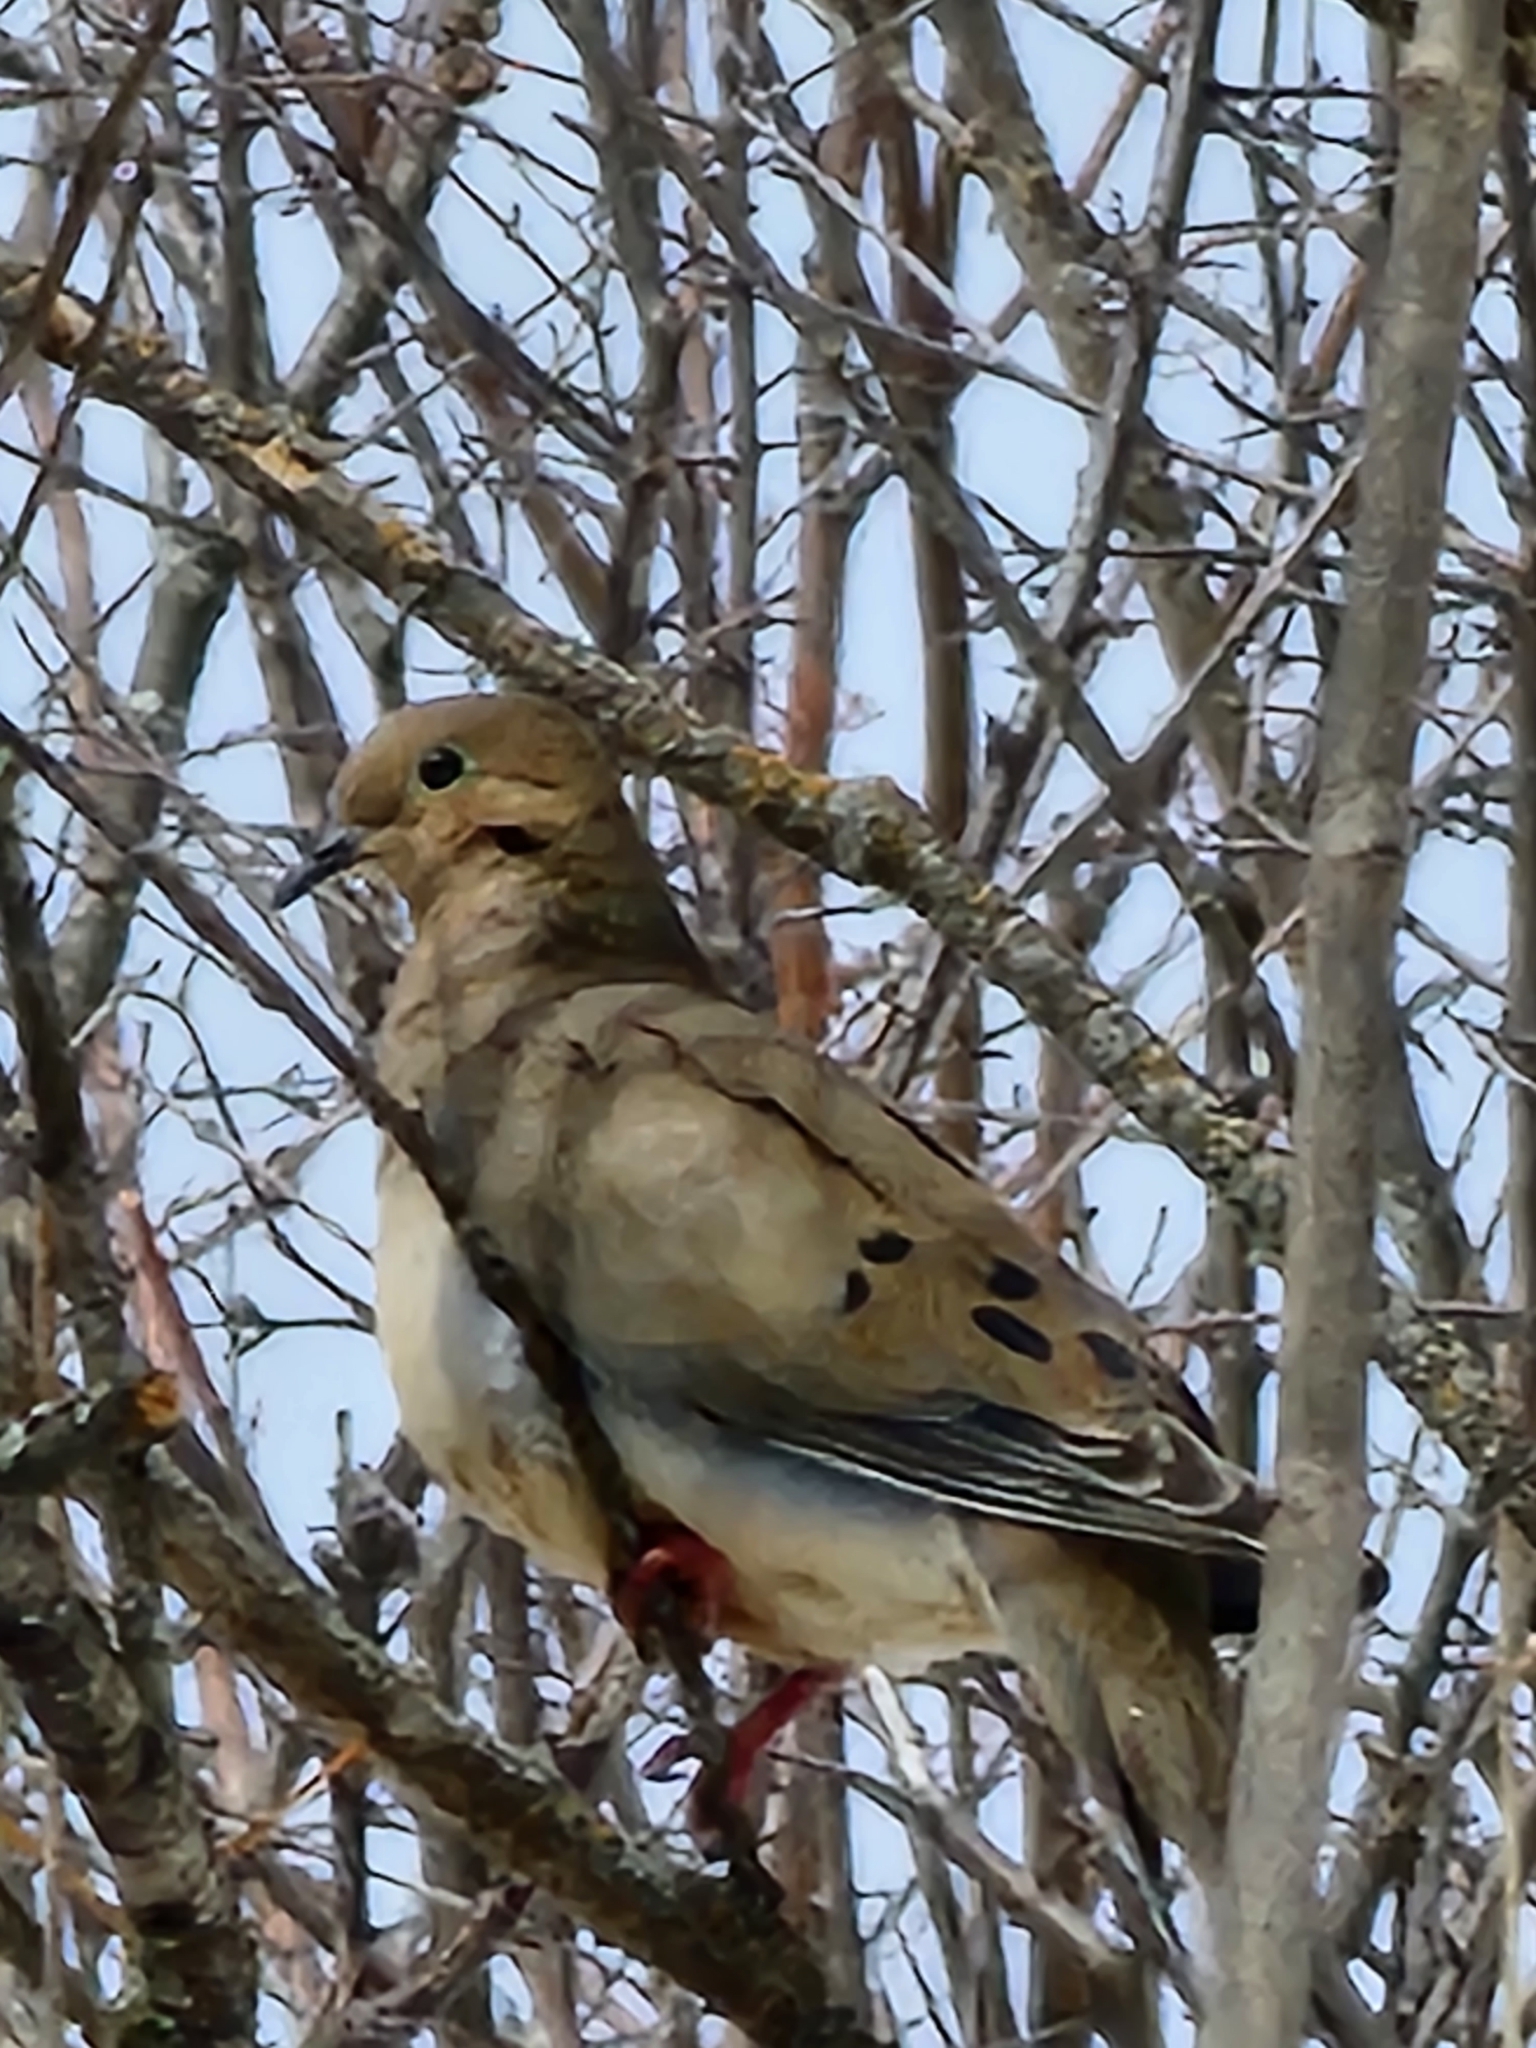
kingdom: Animalia
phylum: Chordata
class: Aves
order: Columbiformes
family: Columbidae
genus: Zenaida
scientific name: Zenaida macroura
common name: Mourning dove
